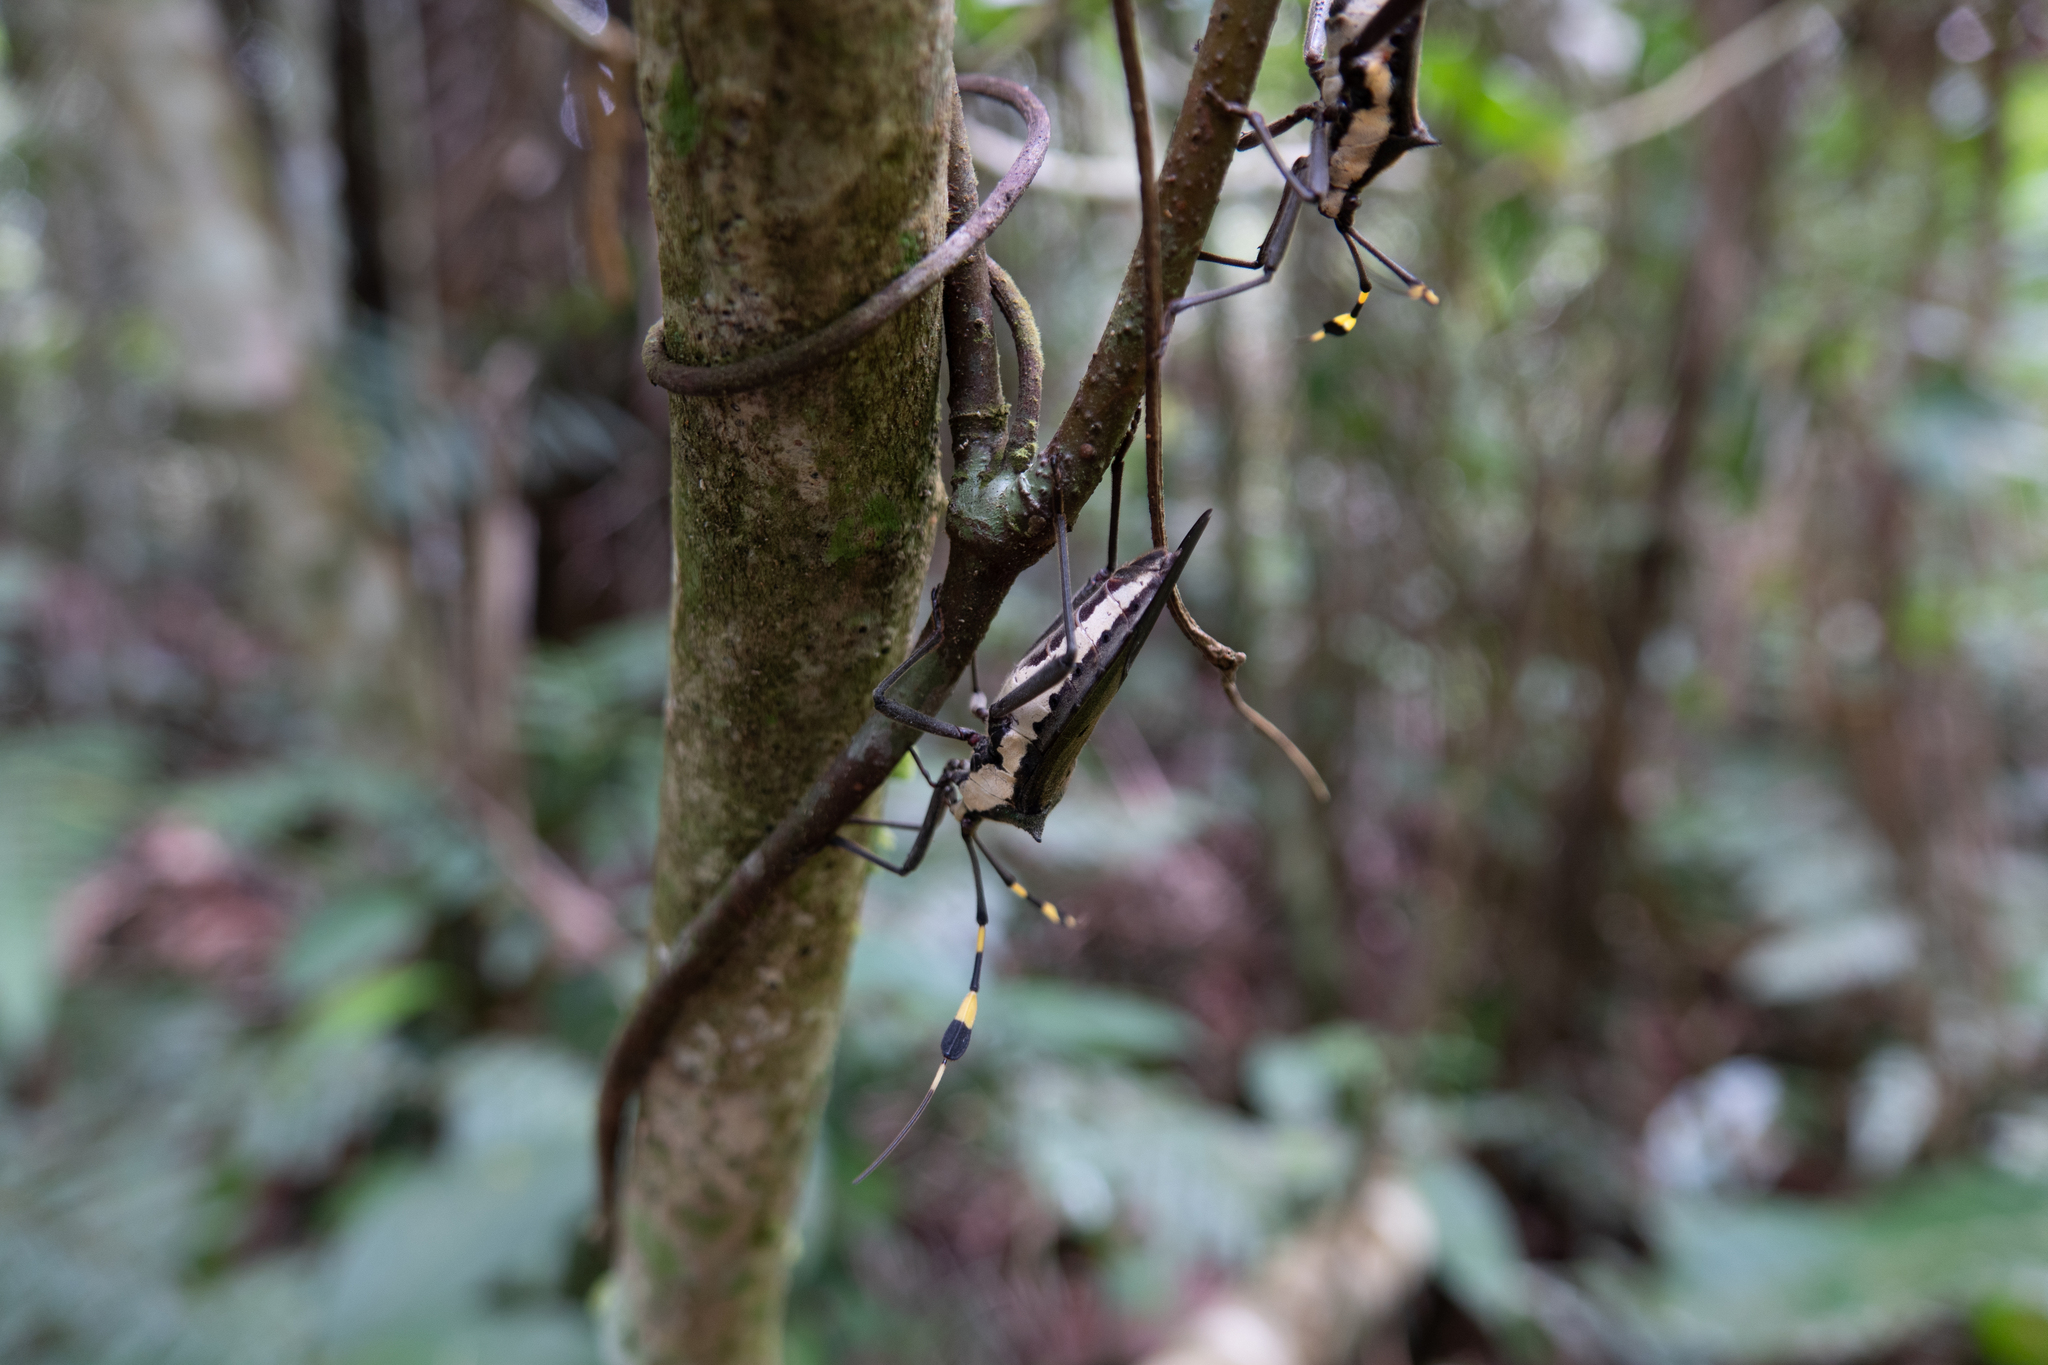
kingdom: Animalia
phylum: Arthropoda
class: Insecta
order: Hemiptera
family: Coreidae
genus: Molchina
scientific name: Molchina hopei
